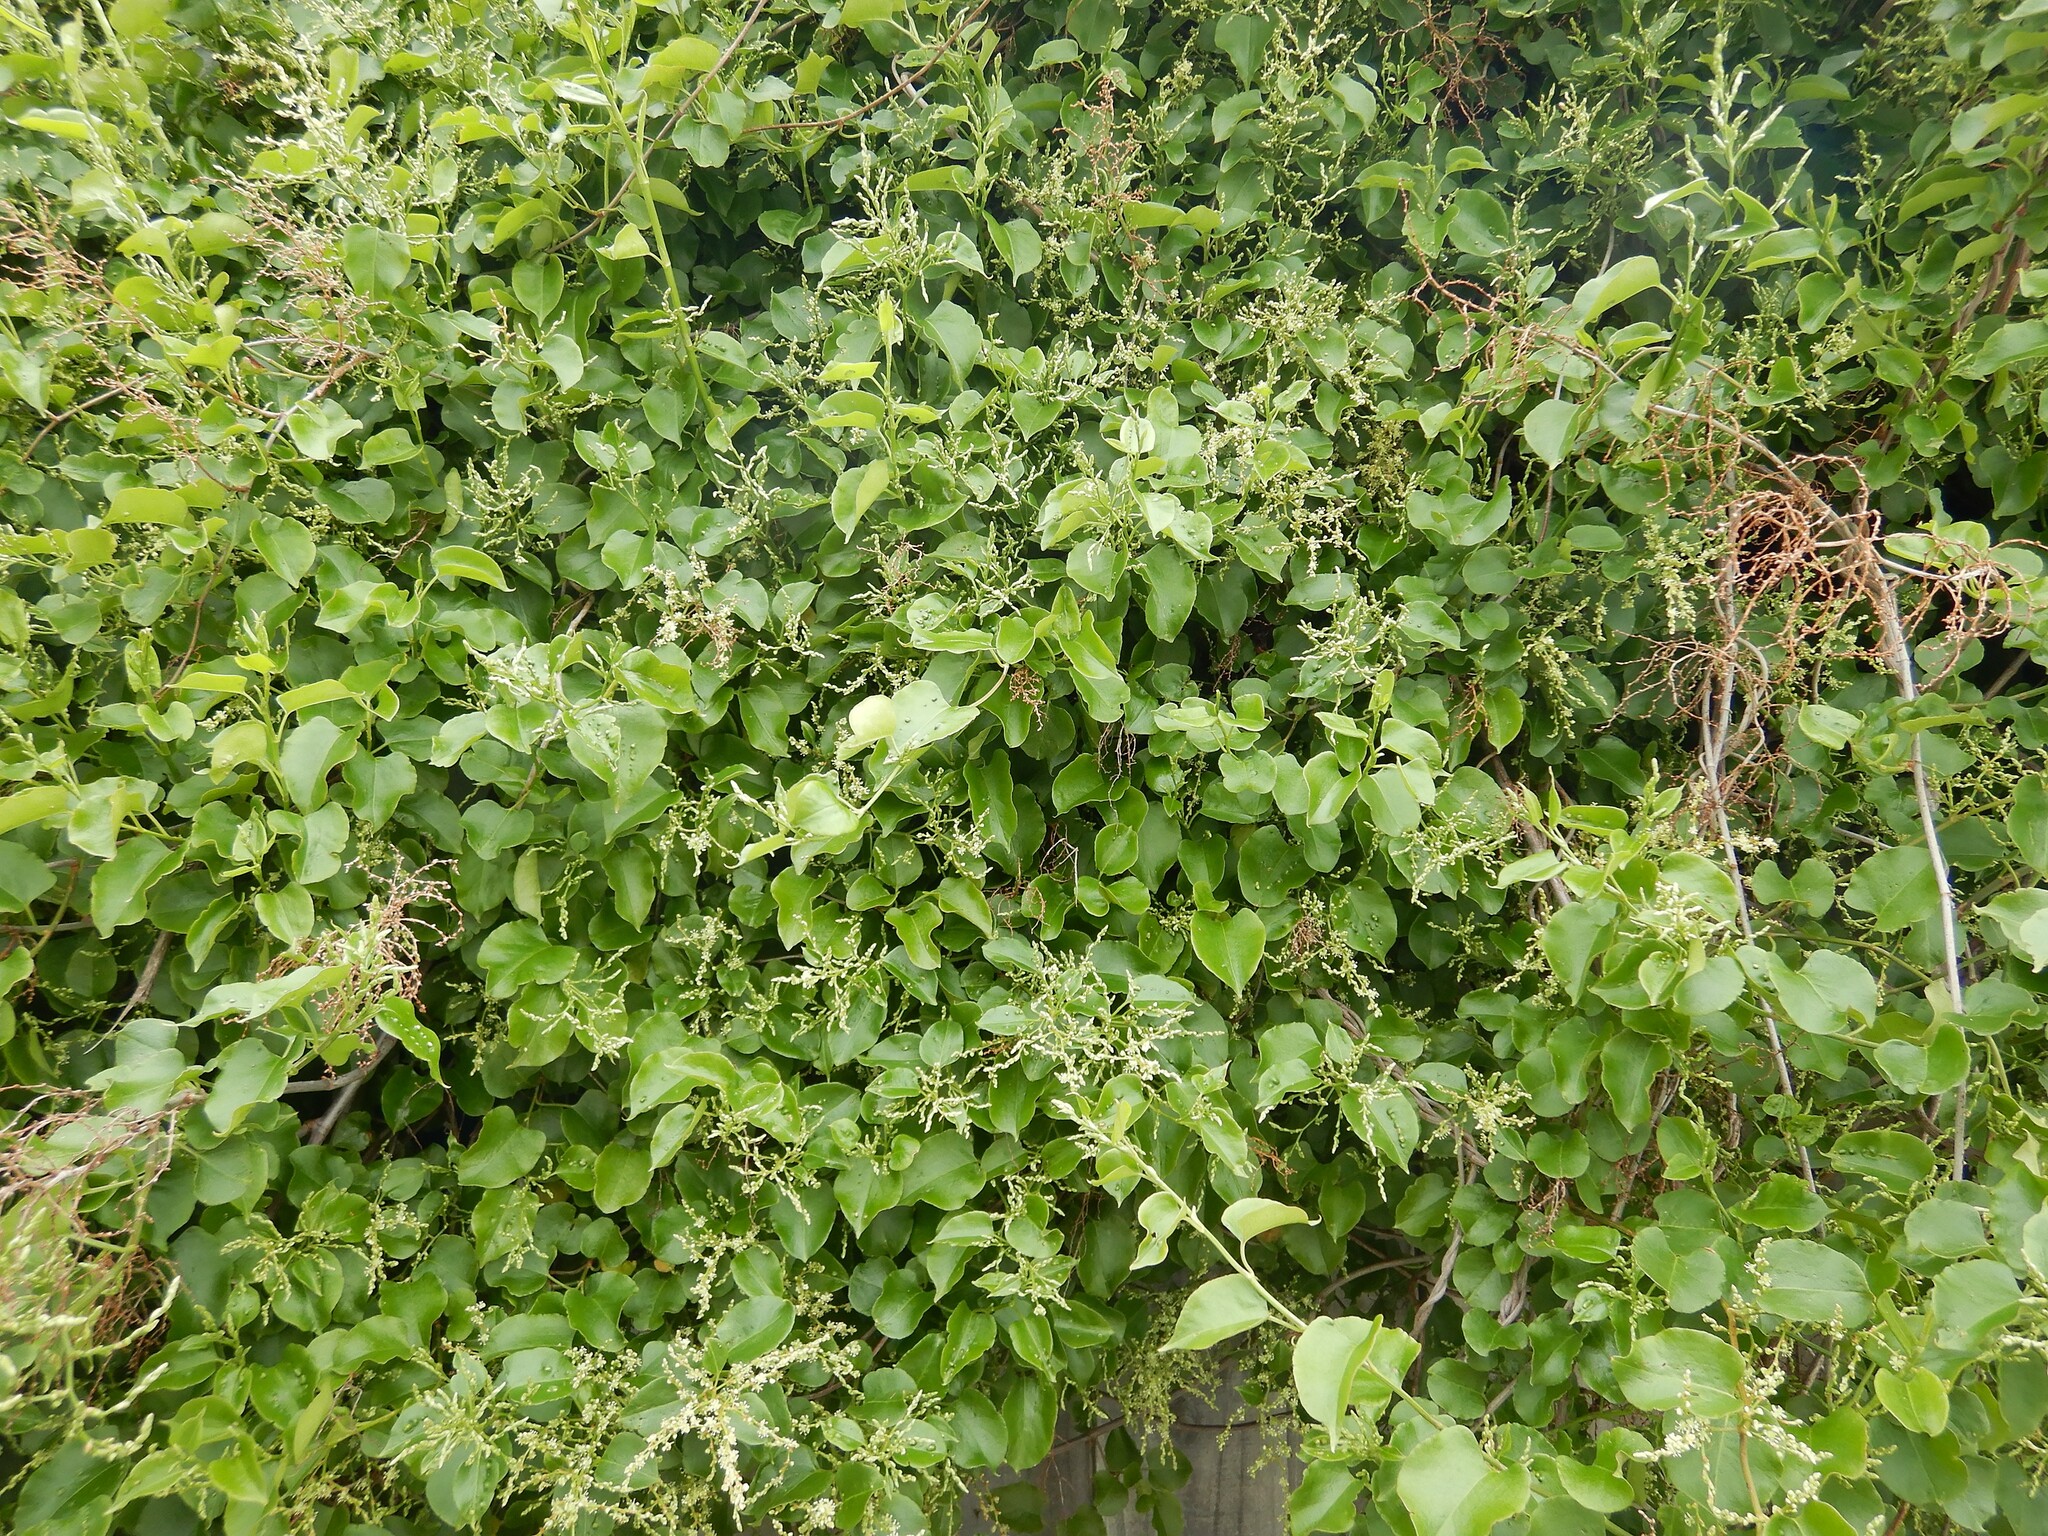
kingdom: Plantae
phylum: Tracheophyta
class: Magnoliopsida
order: Caryophyllales
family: Polygonaceae
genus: Muehlenbeckia
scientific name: Muehlenbeckia australis
